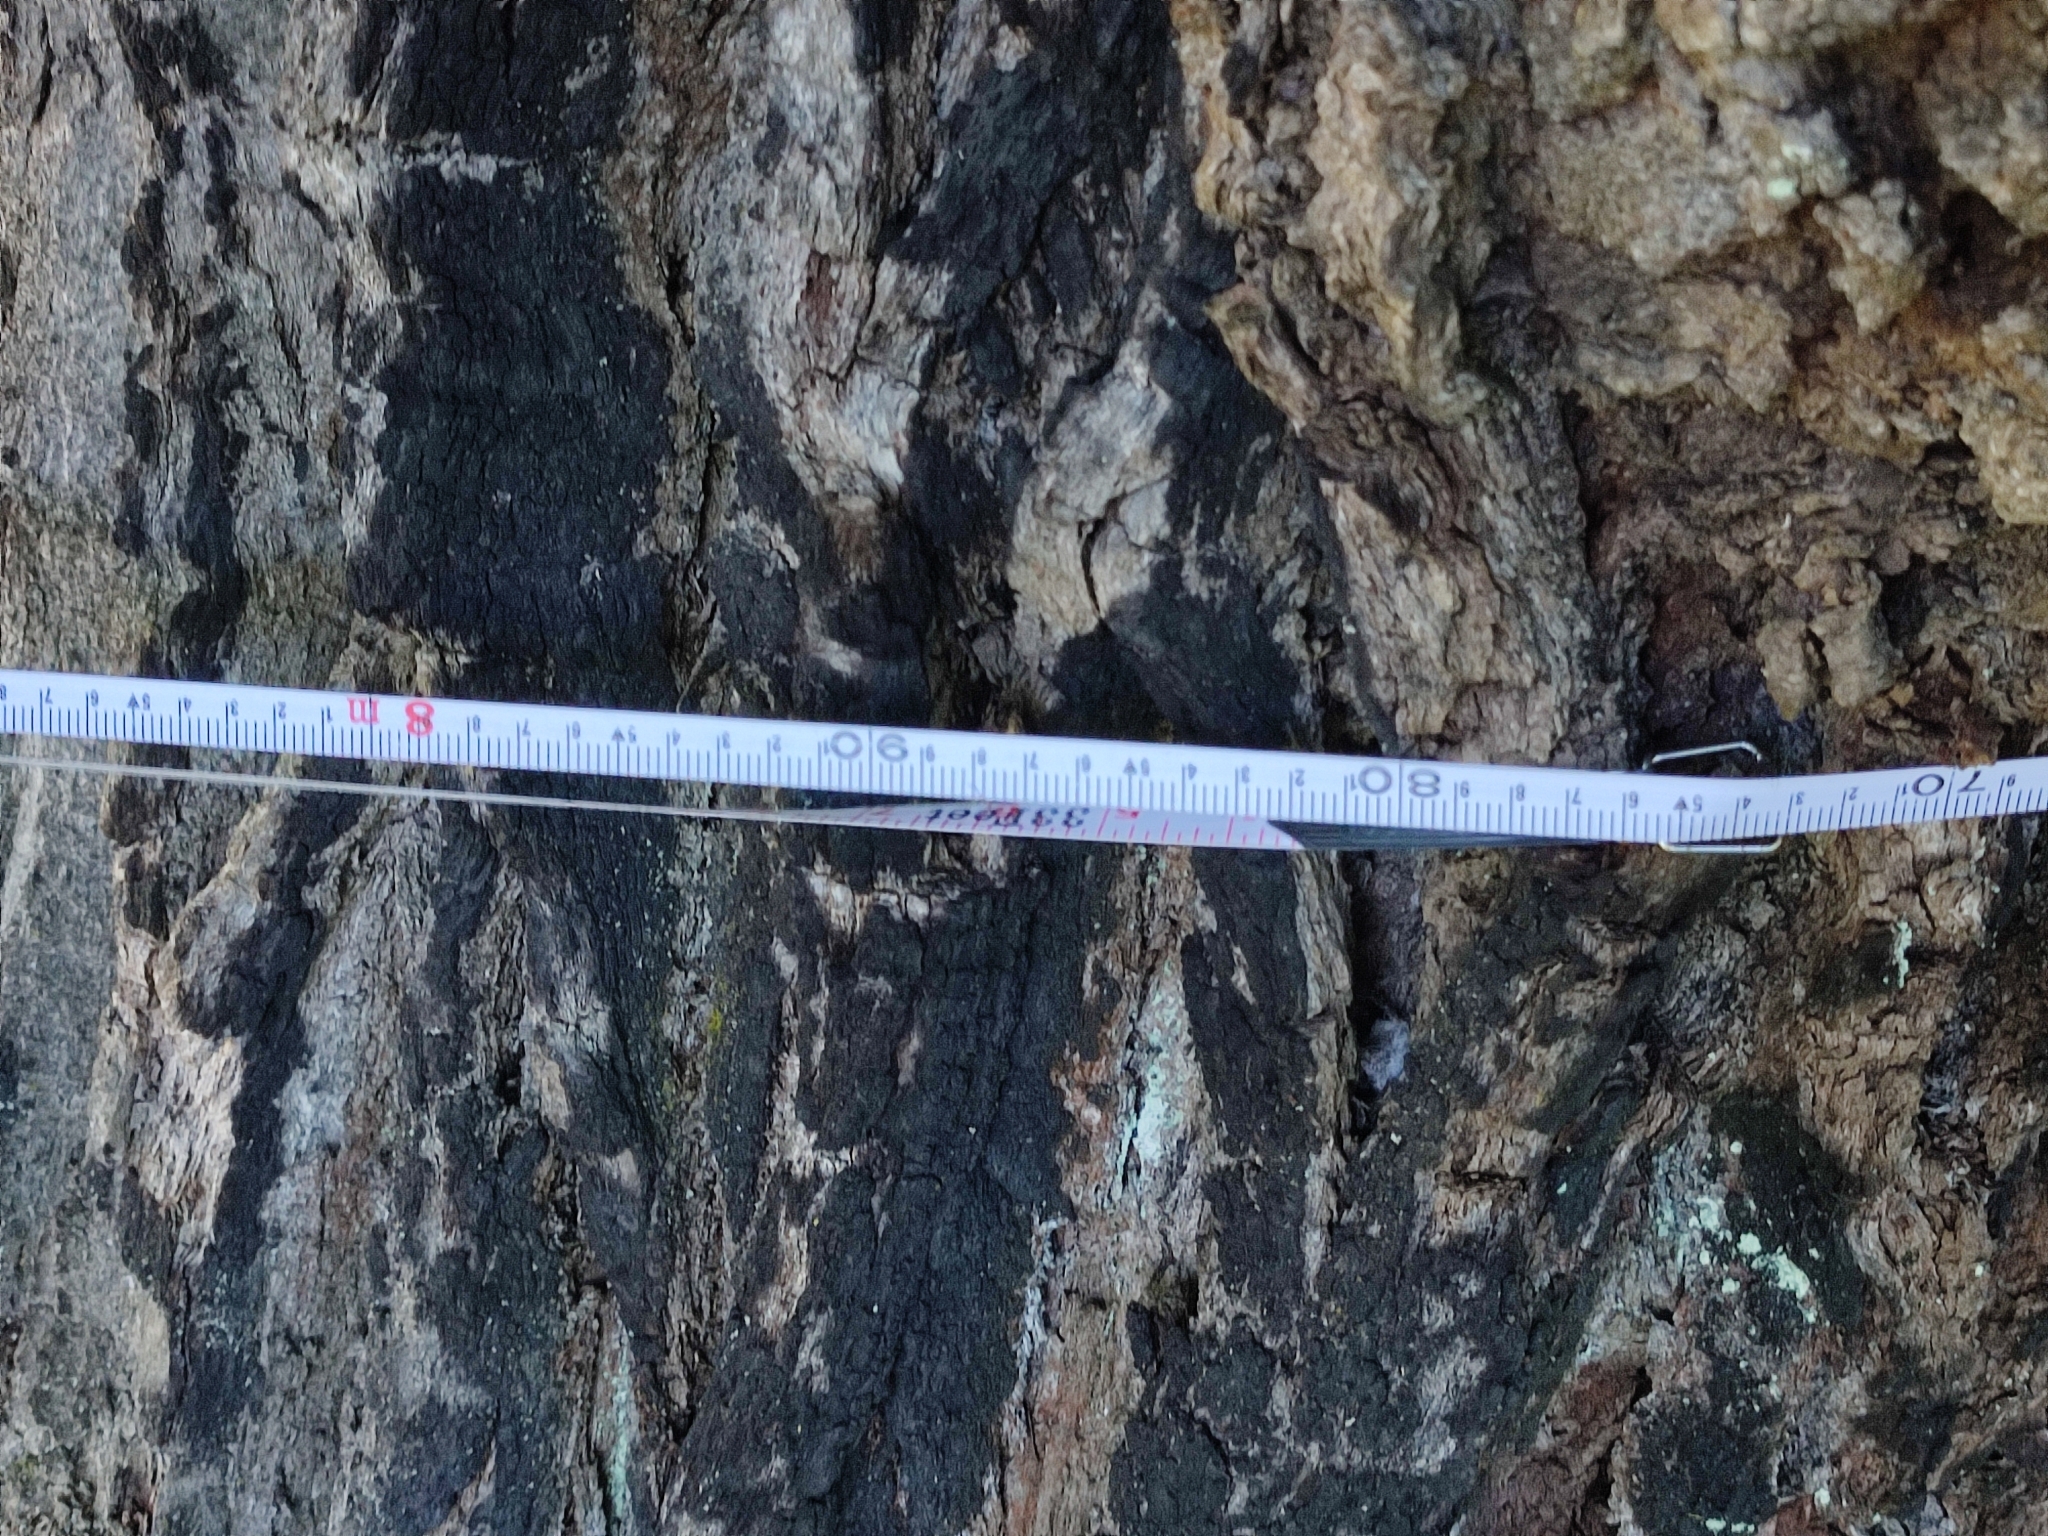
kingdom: Plantae
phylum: Tracheophyta
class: Magnoliopsida
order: Fagales
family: Fagaceae
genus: Quercus
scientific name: Quercus robur
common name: Pedunculate oak
